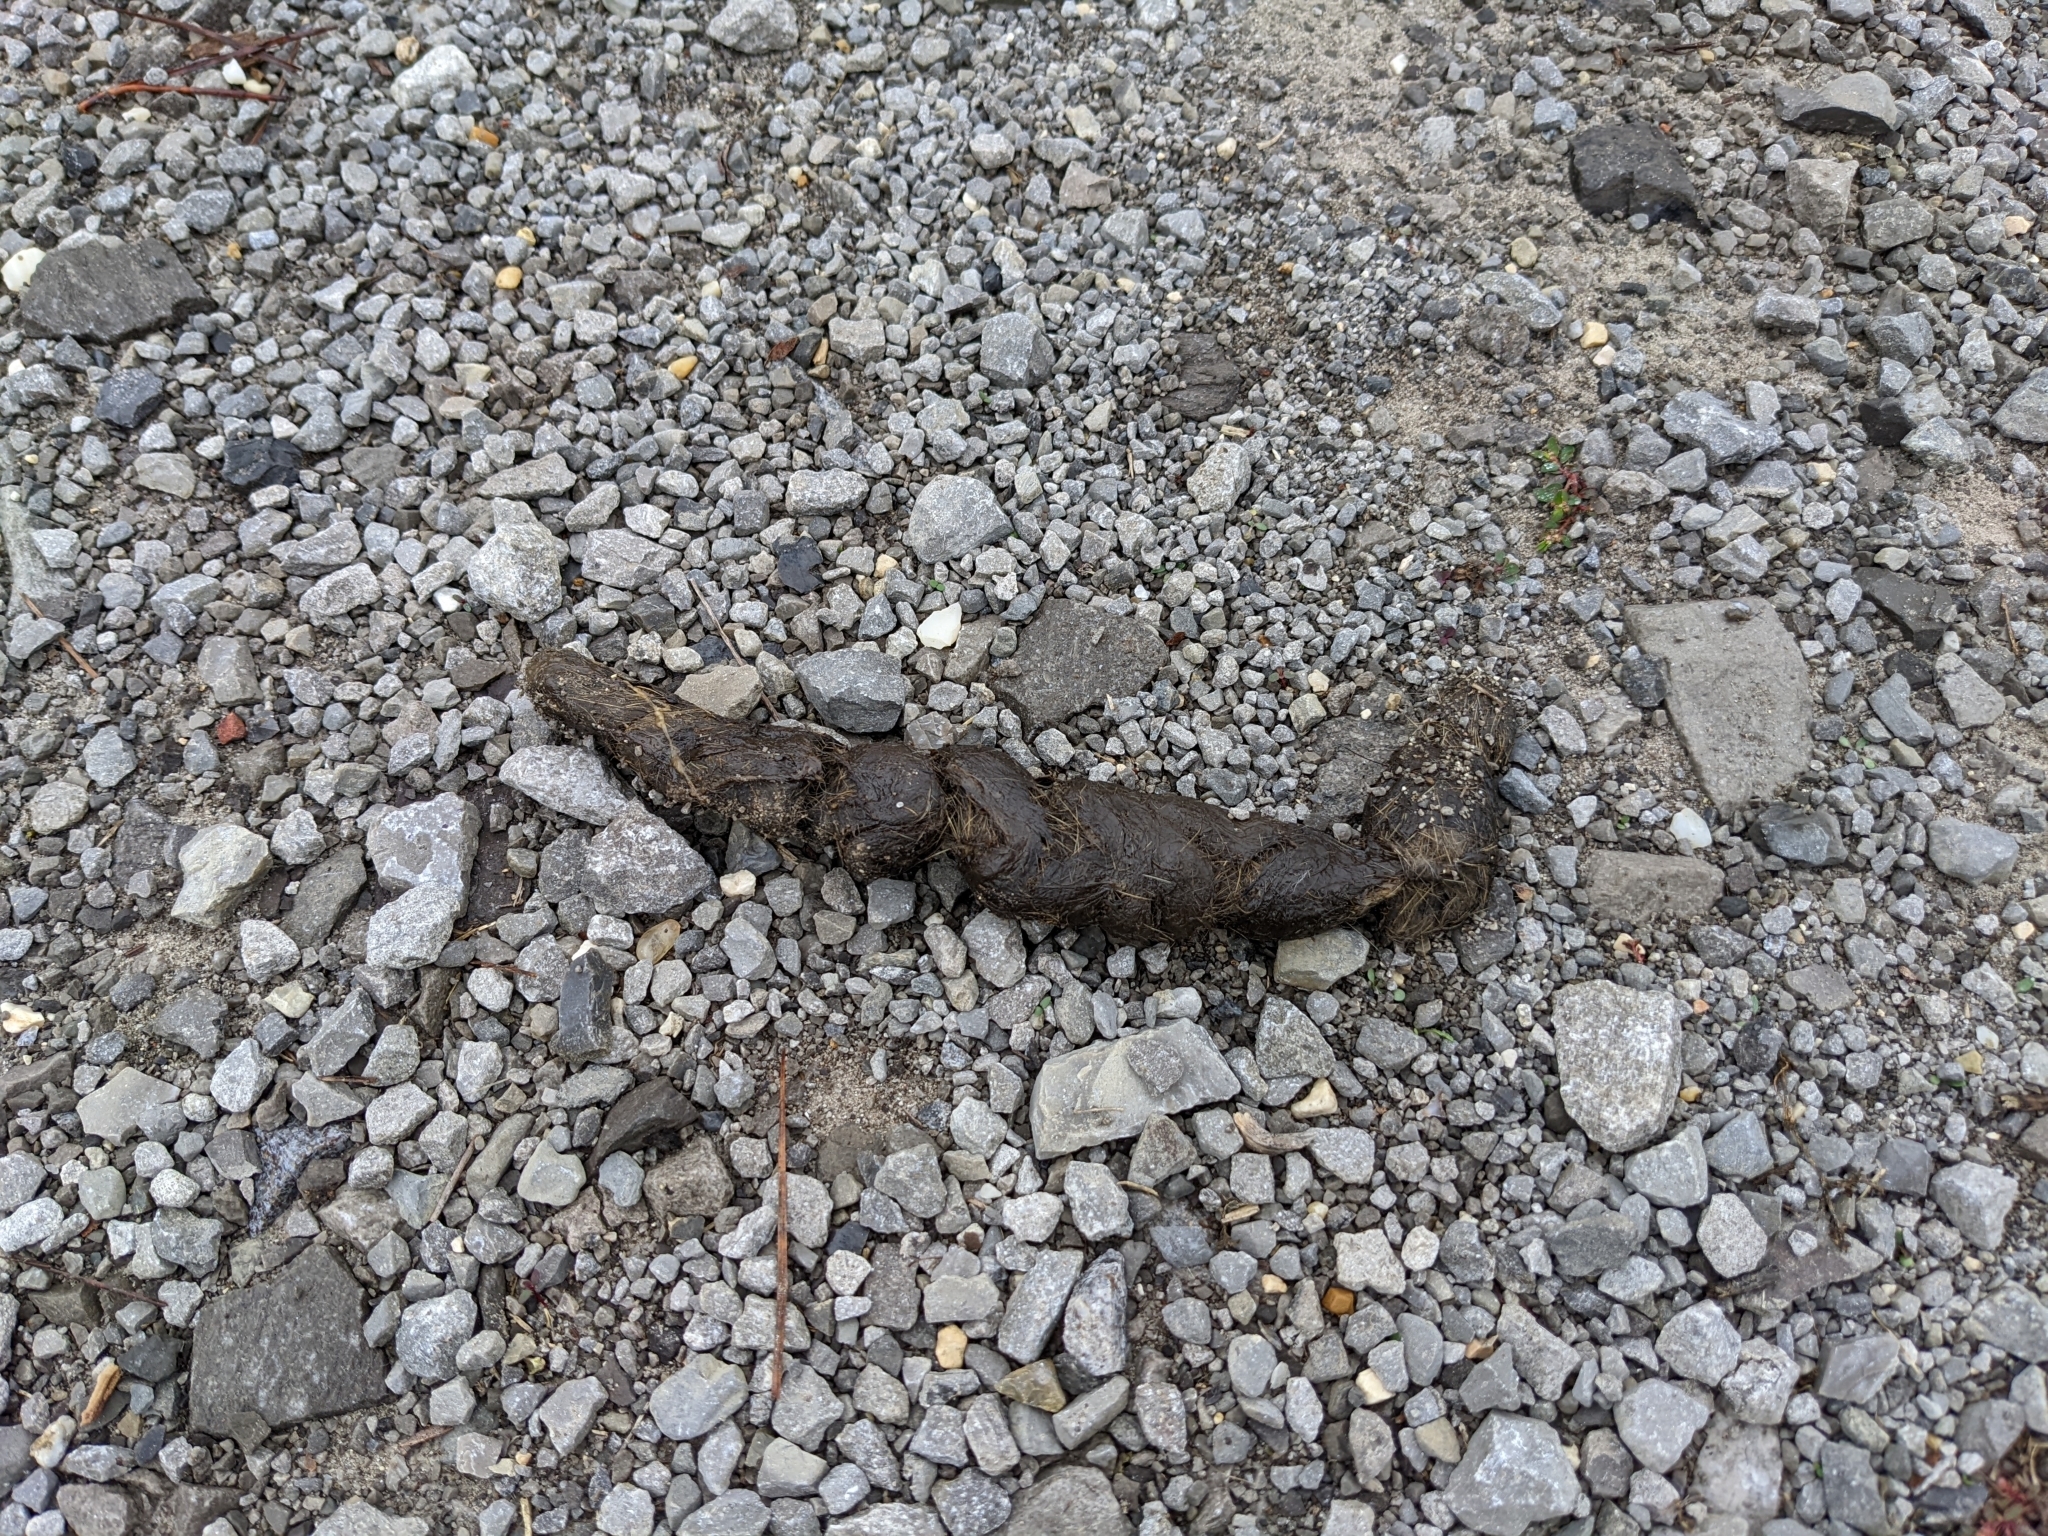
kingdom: Animalia
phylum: Chordata
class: Mammalia
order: Carnivora
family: Canidae
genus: Canis
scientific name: Canis latrans
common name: Coyote
